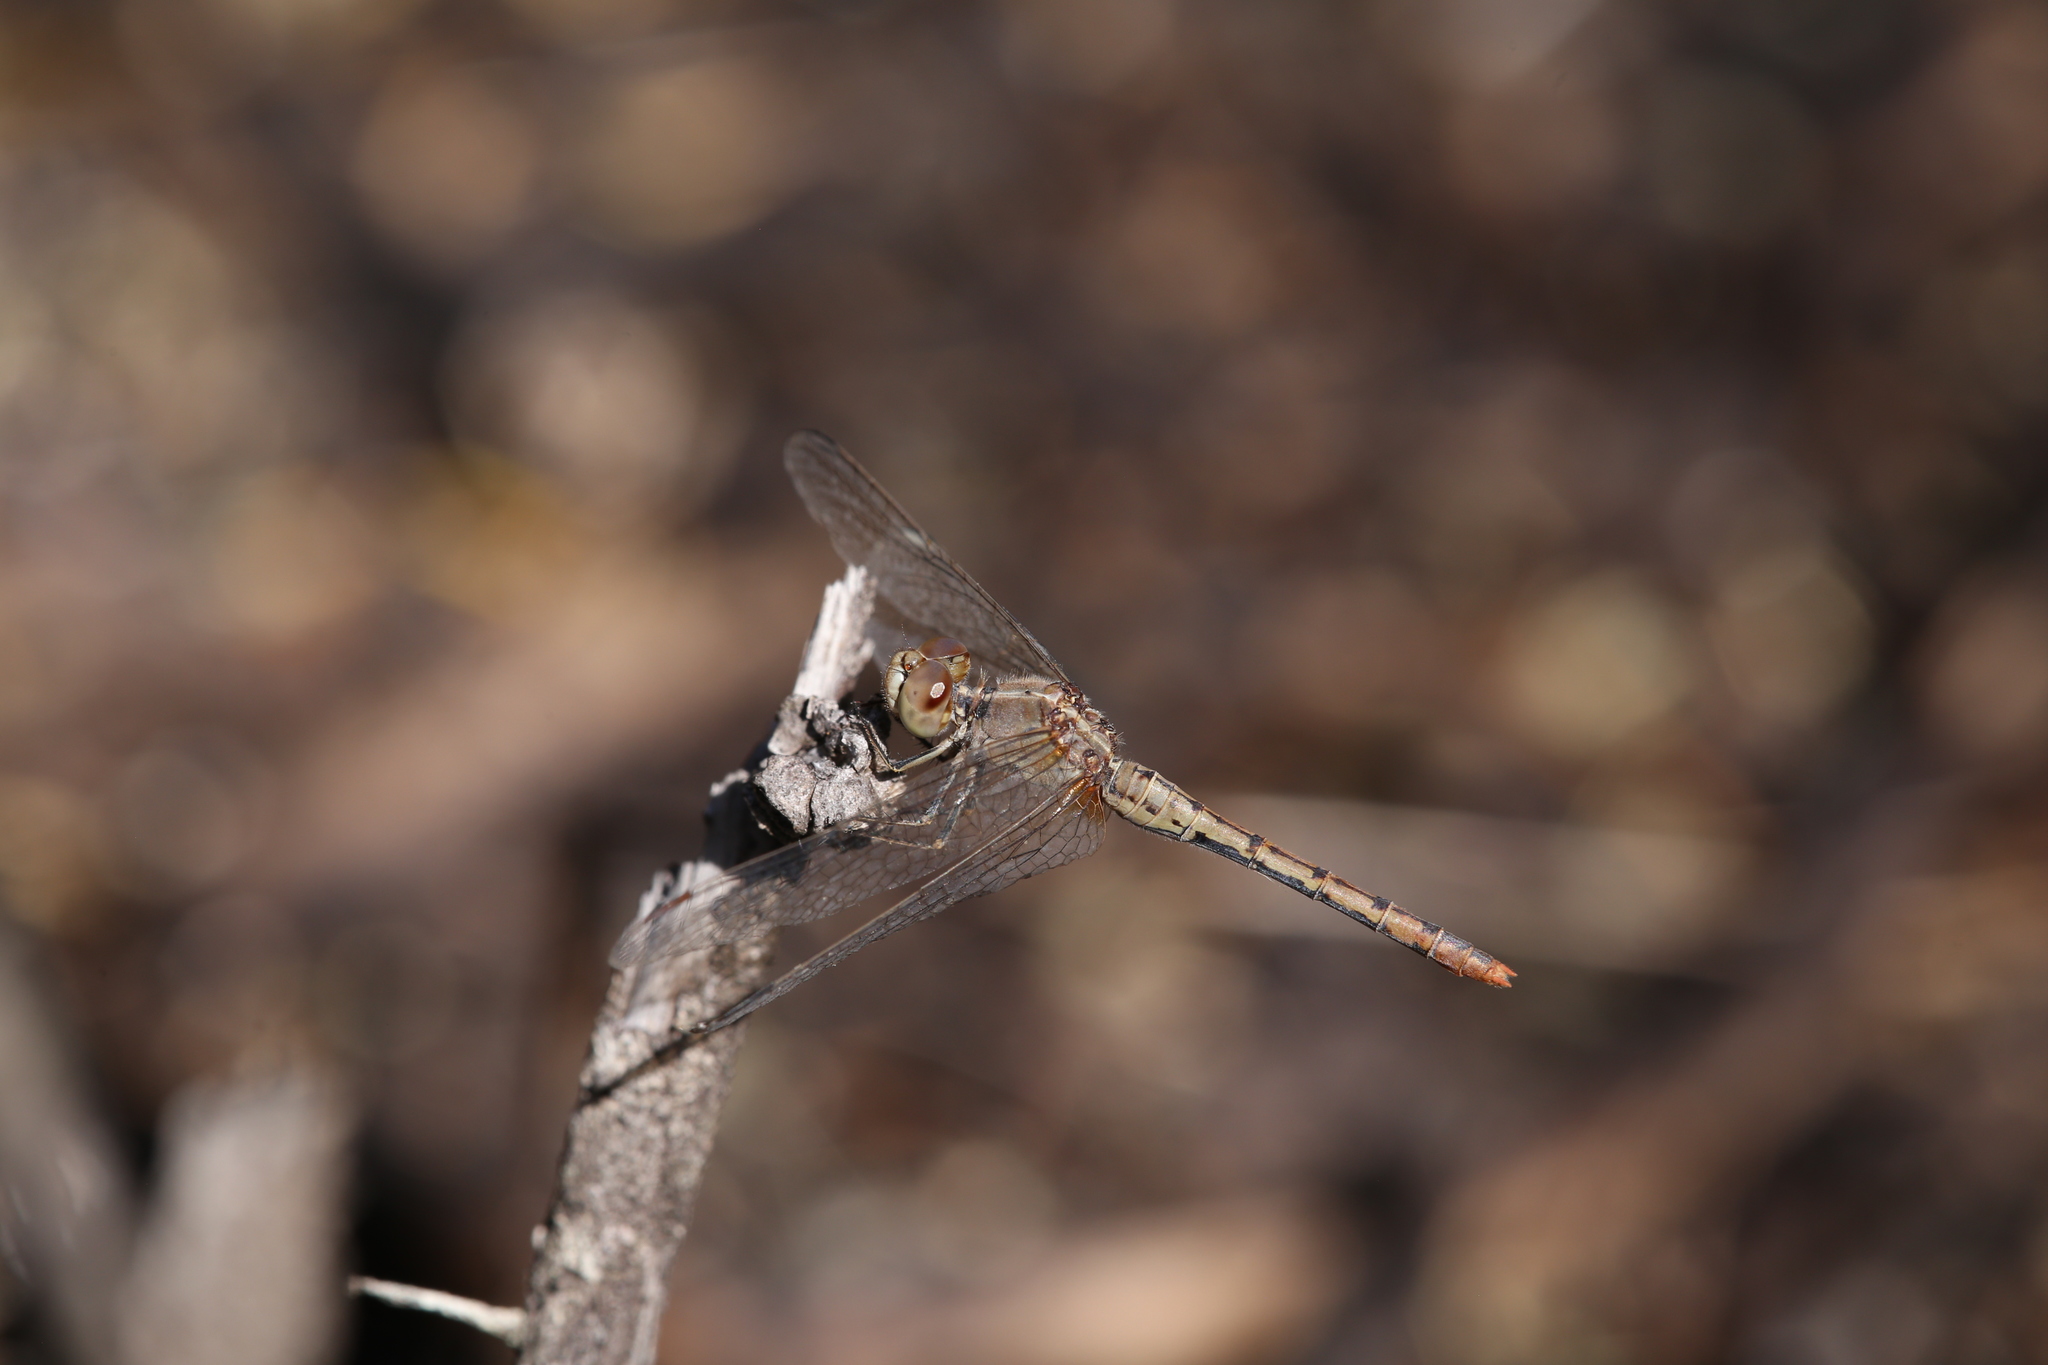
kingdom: Animalia
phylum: Arthropoda
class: Insecta
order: Odonata
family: Libellulidae
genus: Diplacodes
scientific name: Diplacodes bipunctata
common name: Red percher dragonfly
